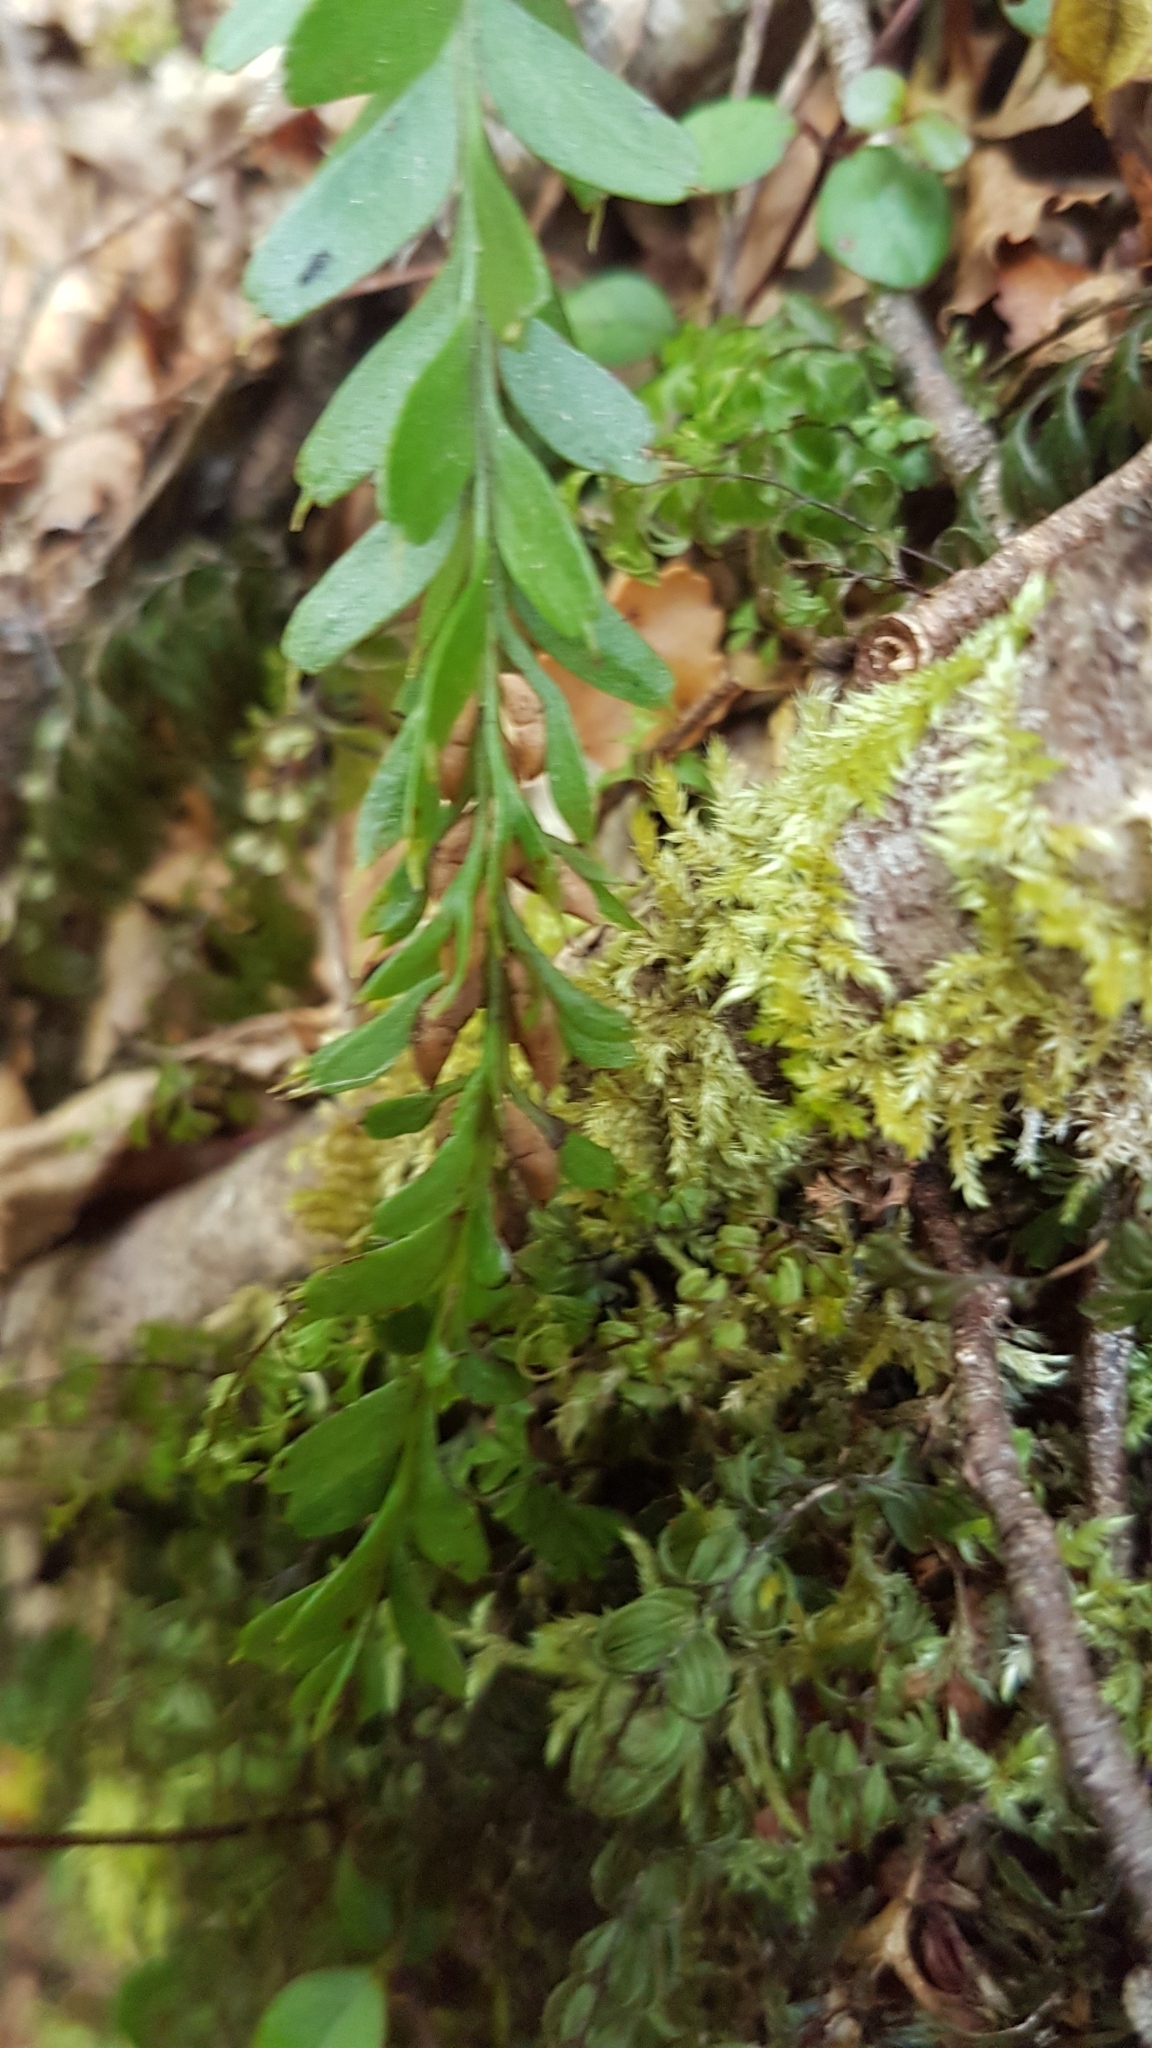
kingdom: Plantae
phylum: Tracheophyta
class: Polypodiopsida
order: Psilotales
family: Psilotaceae
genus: Tmesipteris
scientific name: Tmesipteris tannensis
